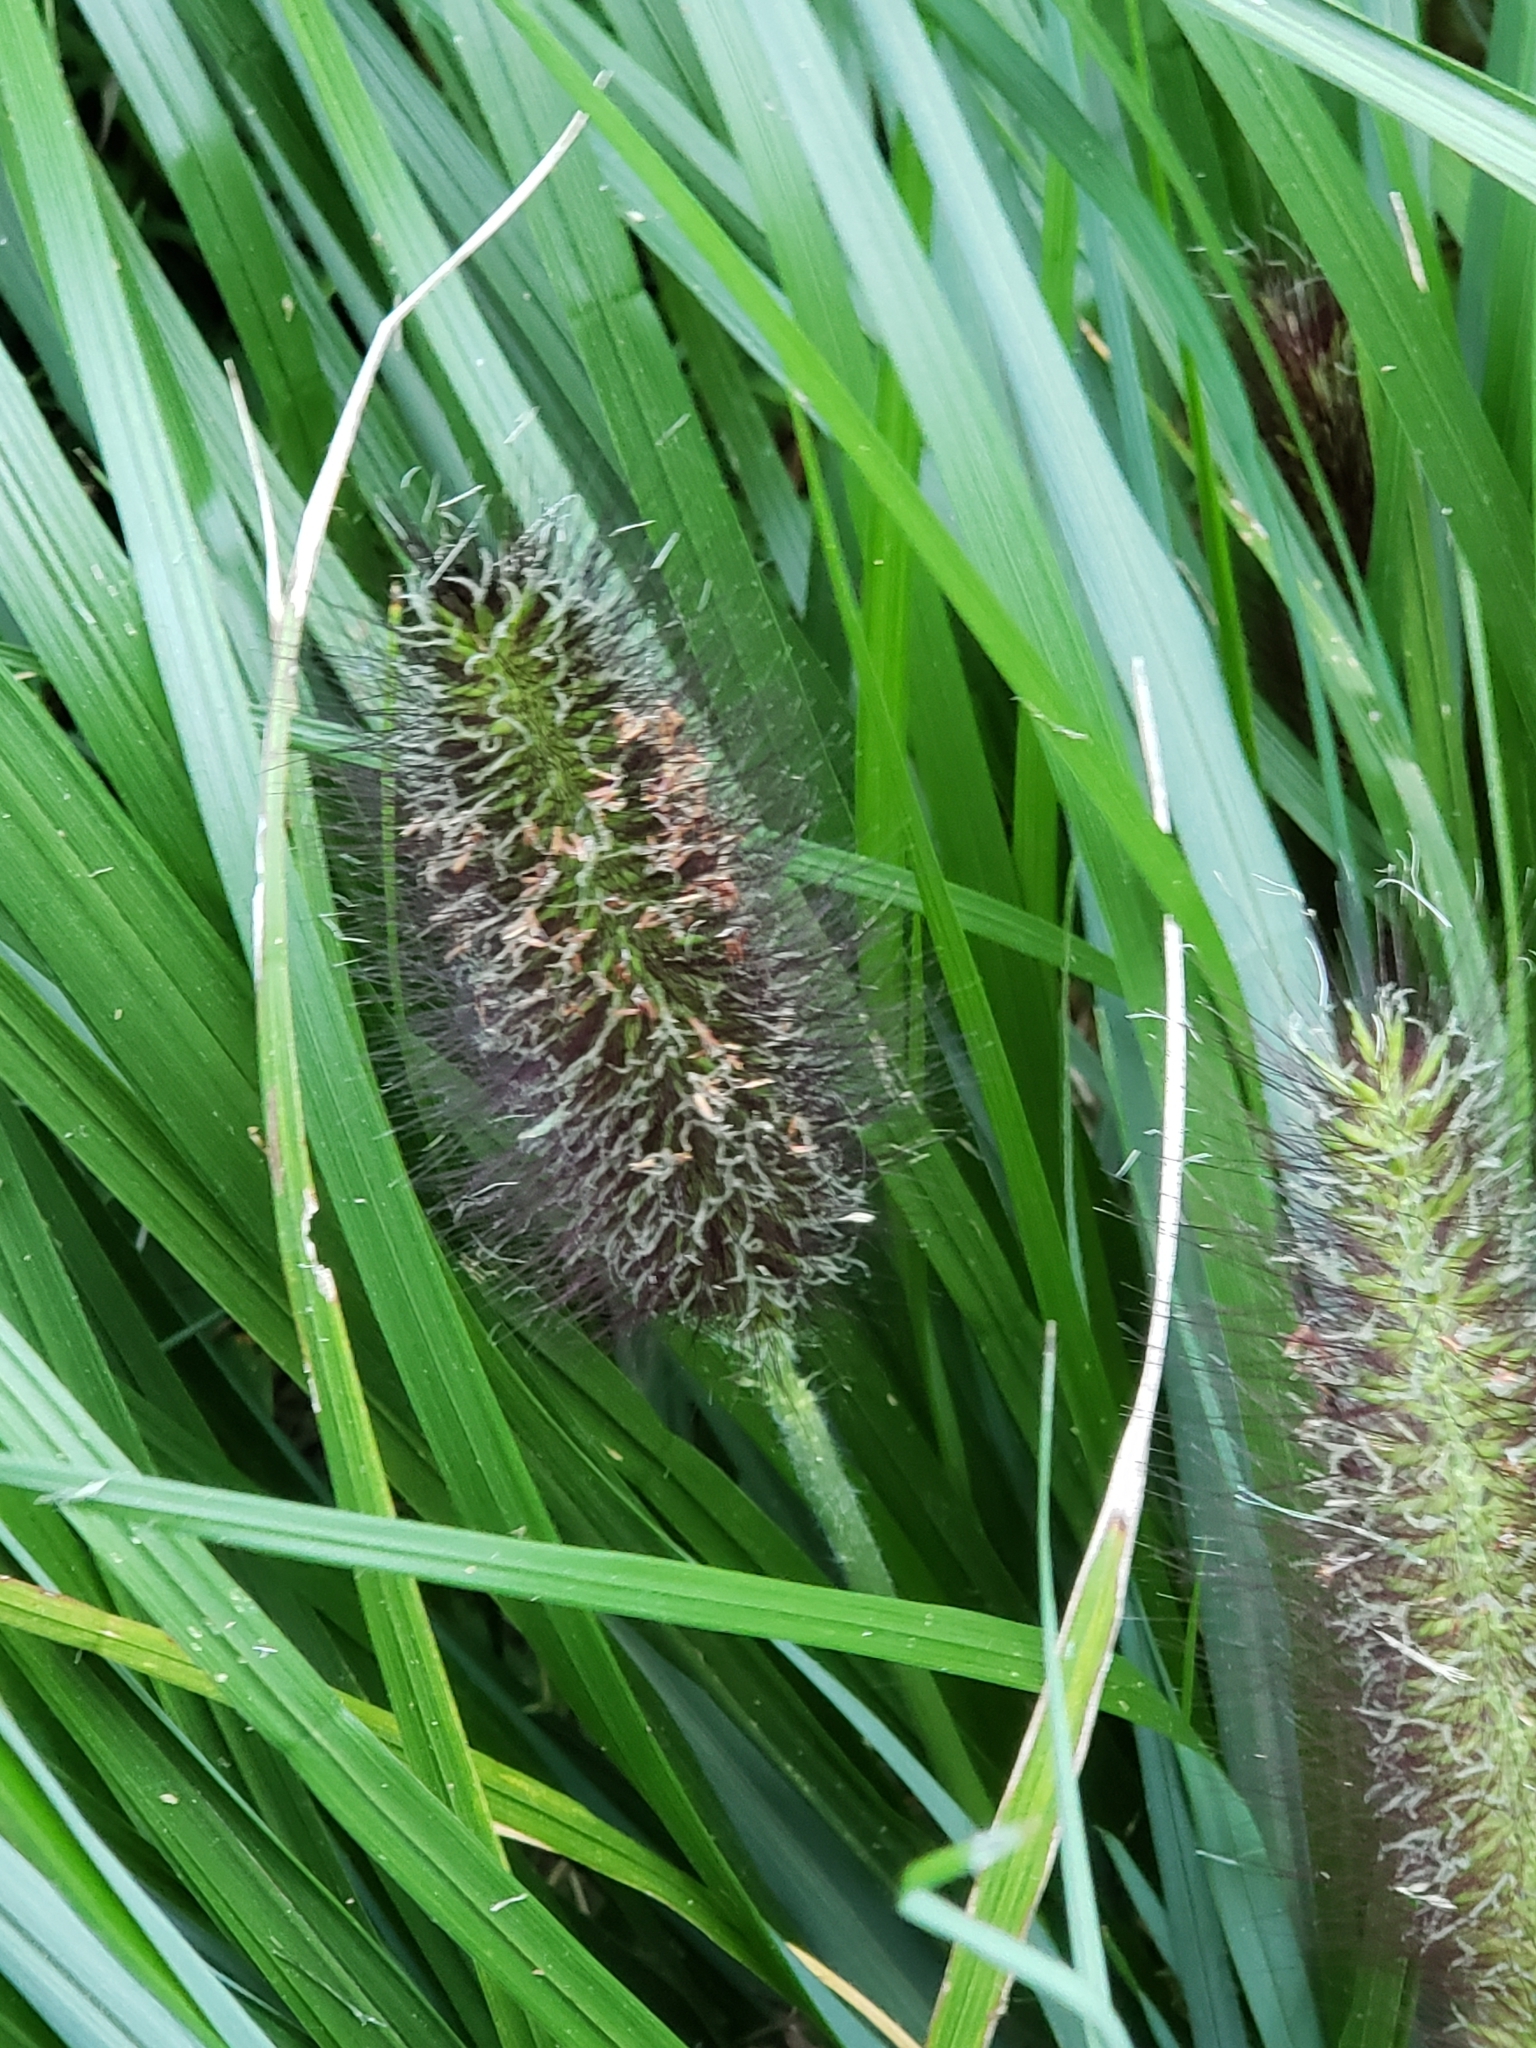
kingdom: Plantae
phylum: Tracheophyta
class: Liliopsida
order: Poales
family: Poaceae
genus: Cenchrus
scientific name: Cenchrus alopecuroides
